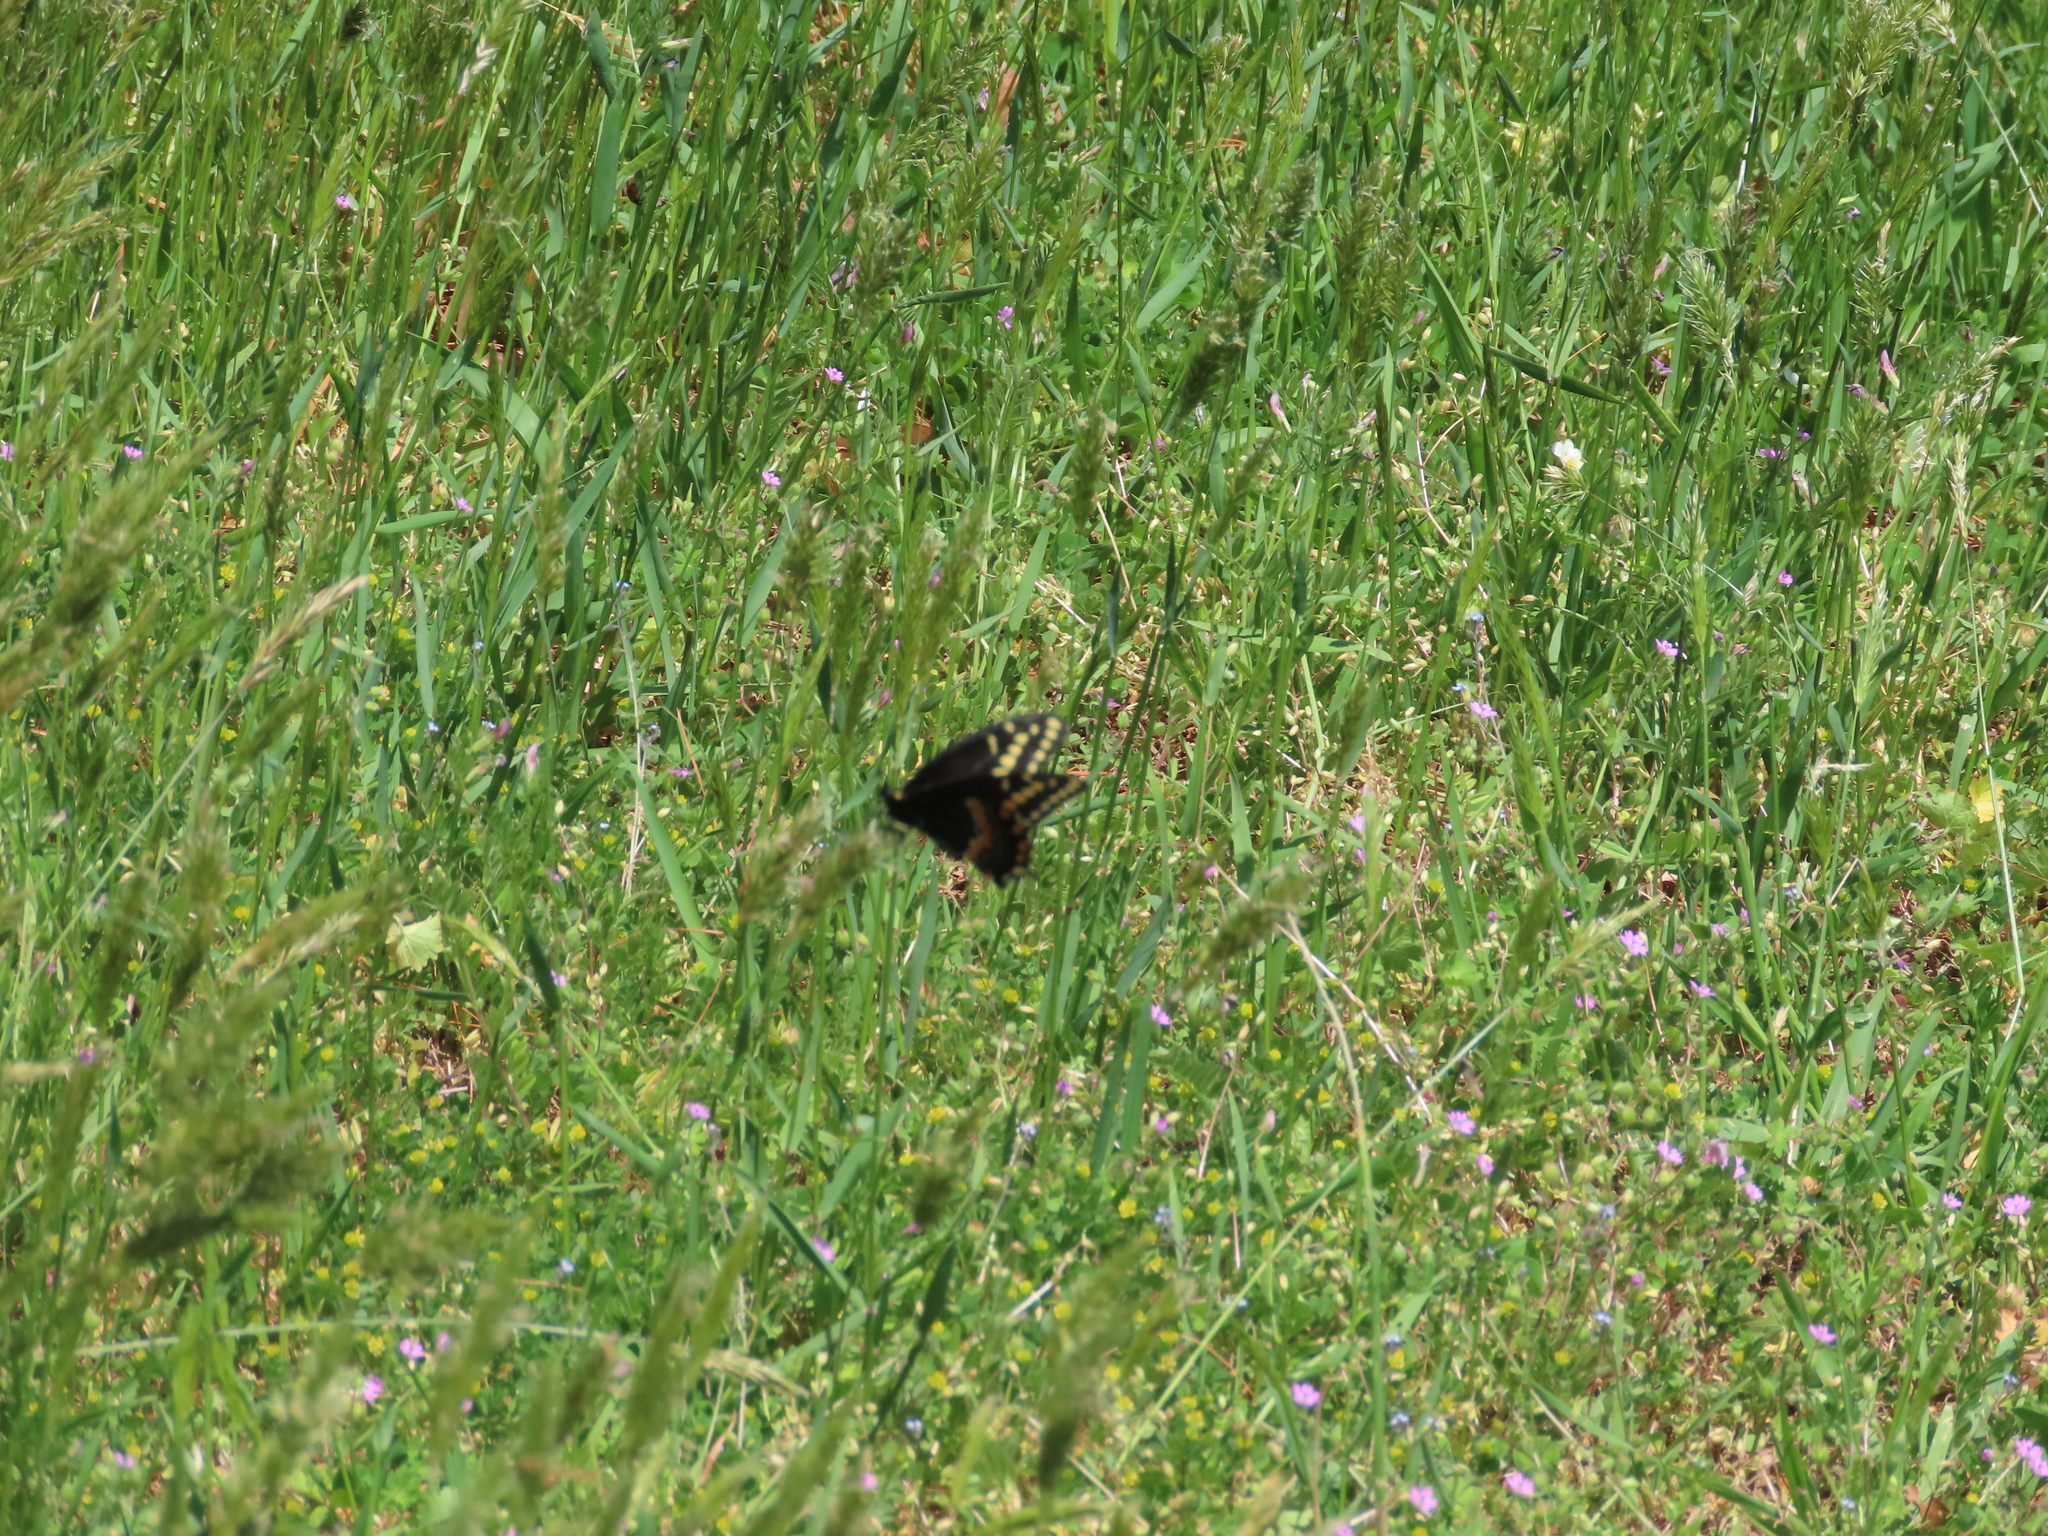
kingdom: Animalia
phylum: Arthropoda
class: Insecta
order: Lepidoptera
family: Papilionidae
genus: Papilio
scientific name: Papilio polyxenes
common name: Black swallowtail
